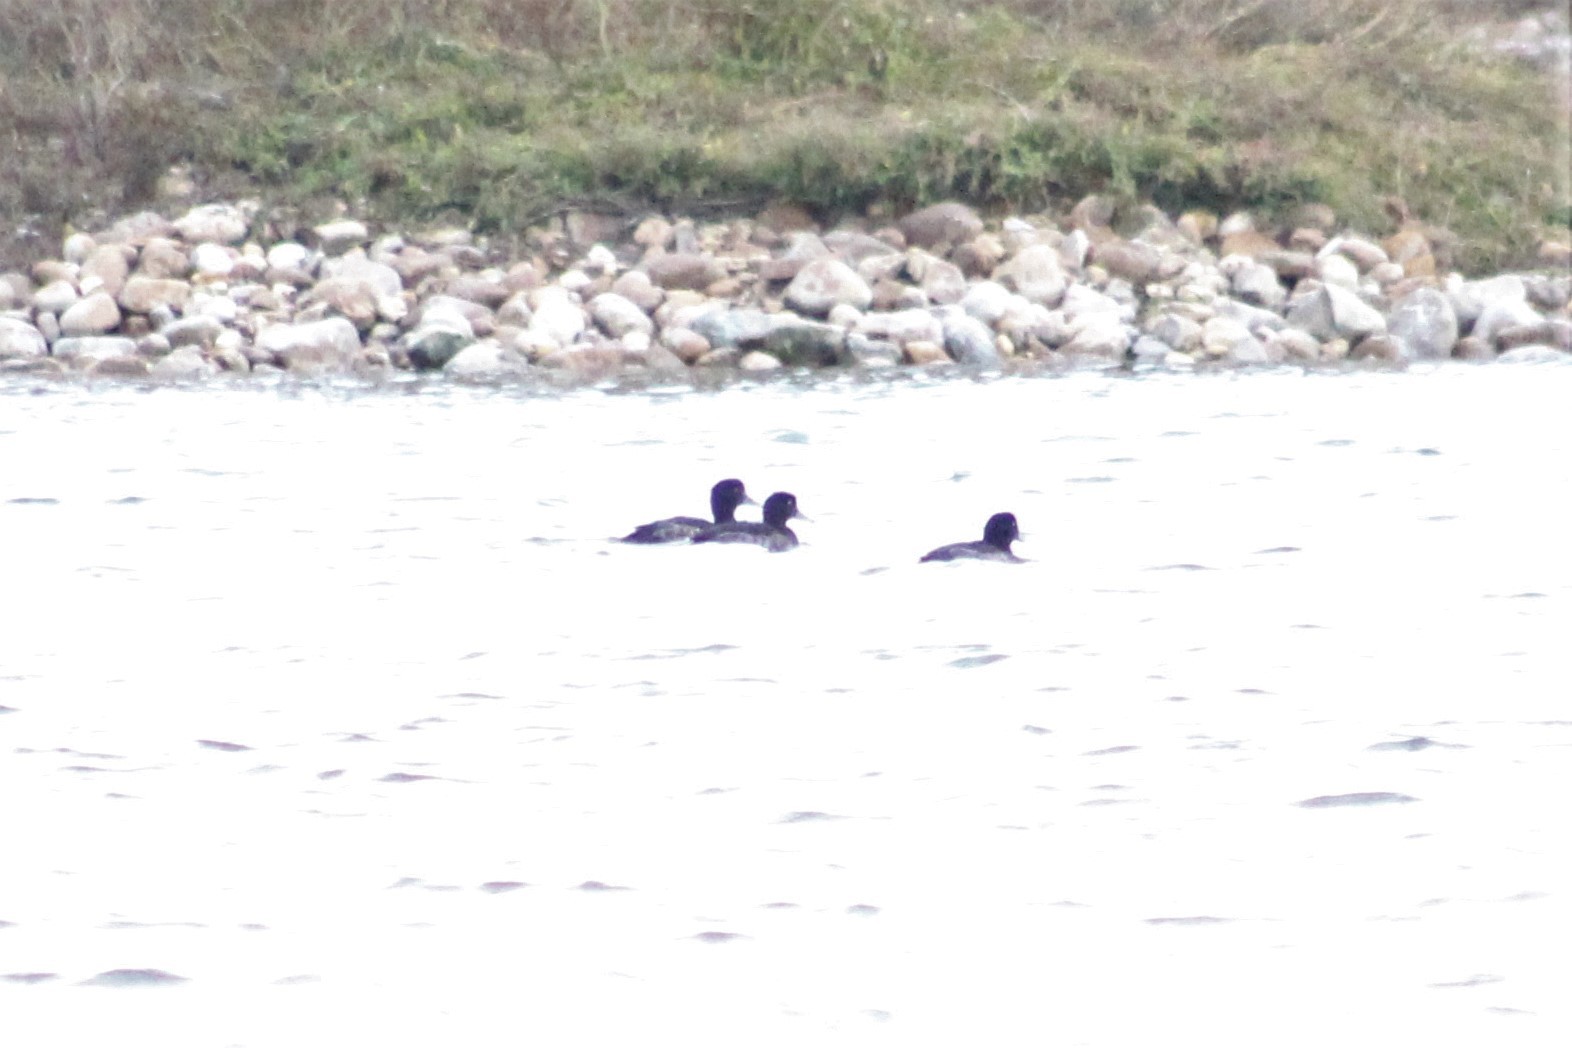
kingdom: Animalia
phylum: Chordata
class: Aves
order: Anseriformes
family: Anatidae
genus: Aythya
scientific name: Aythya fuligula
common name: Tufted duck
